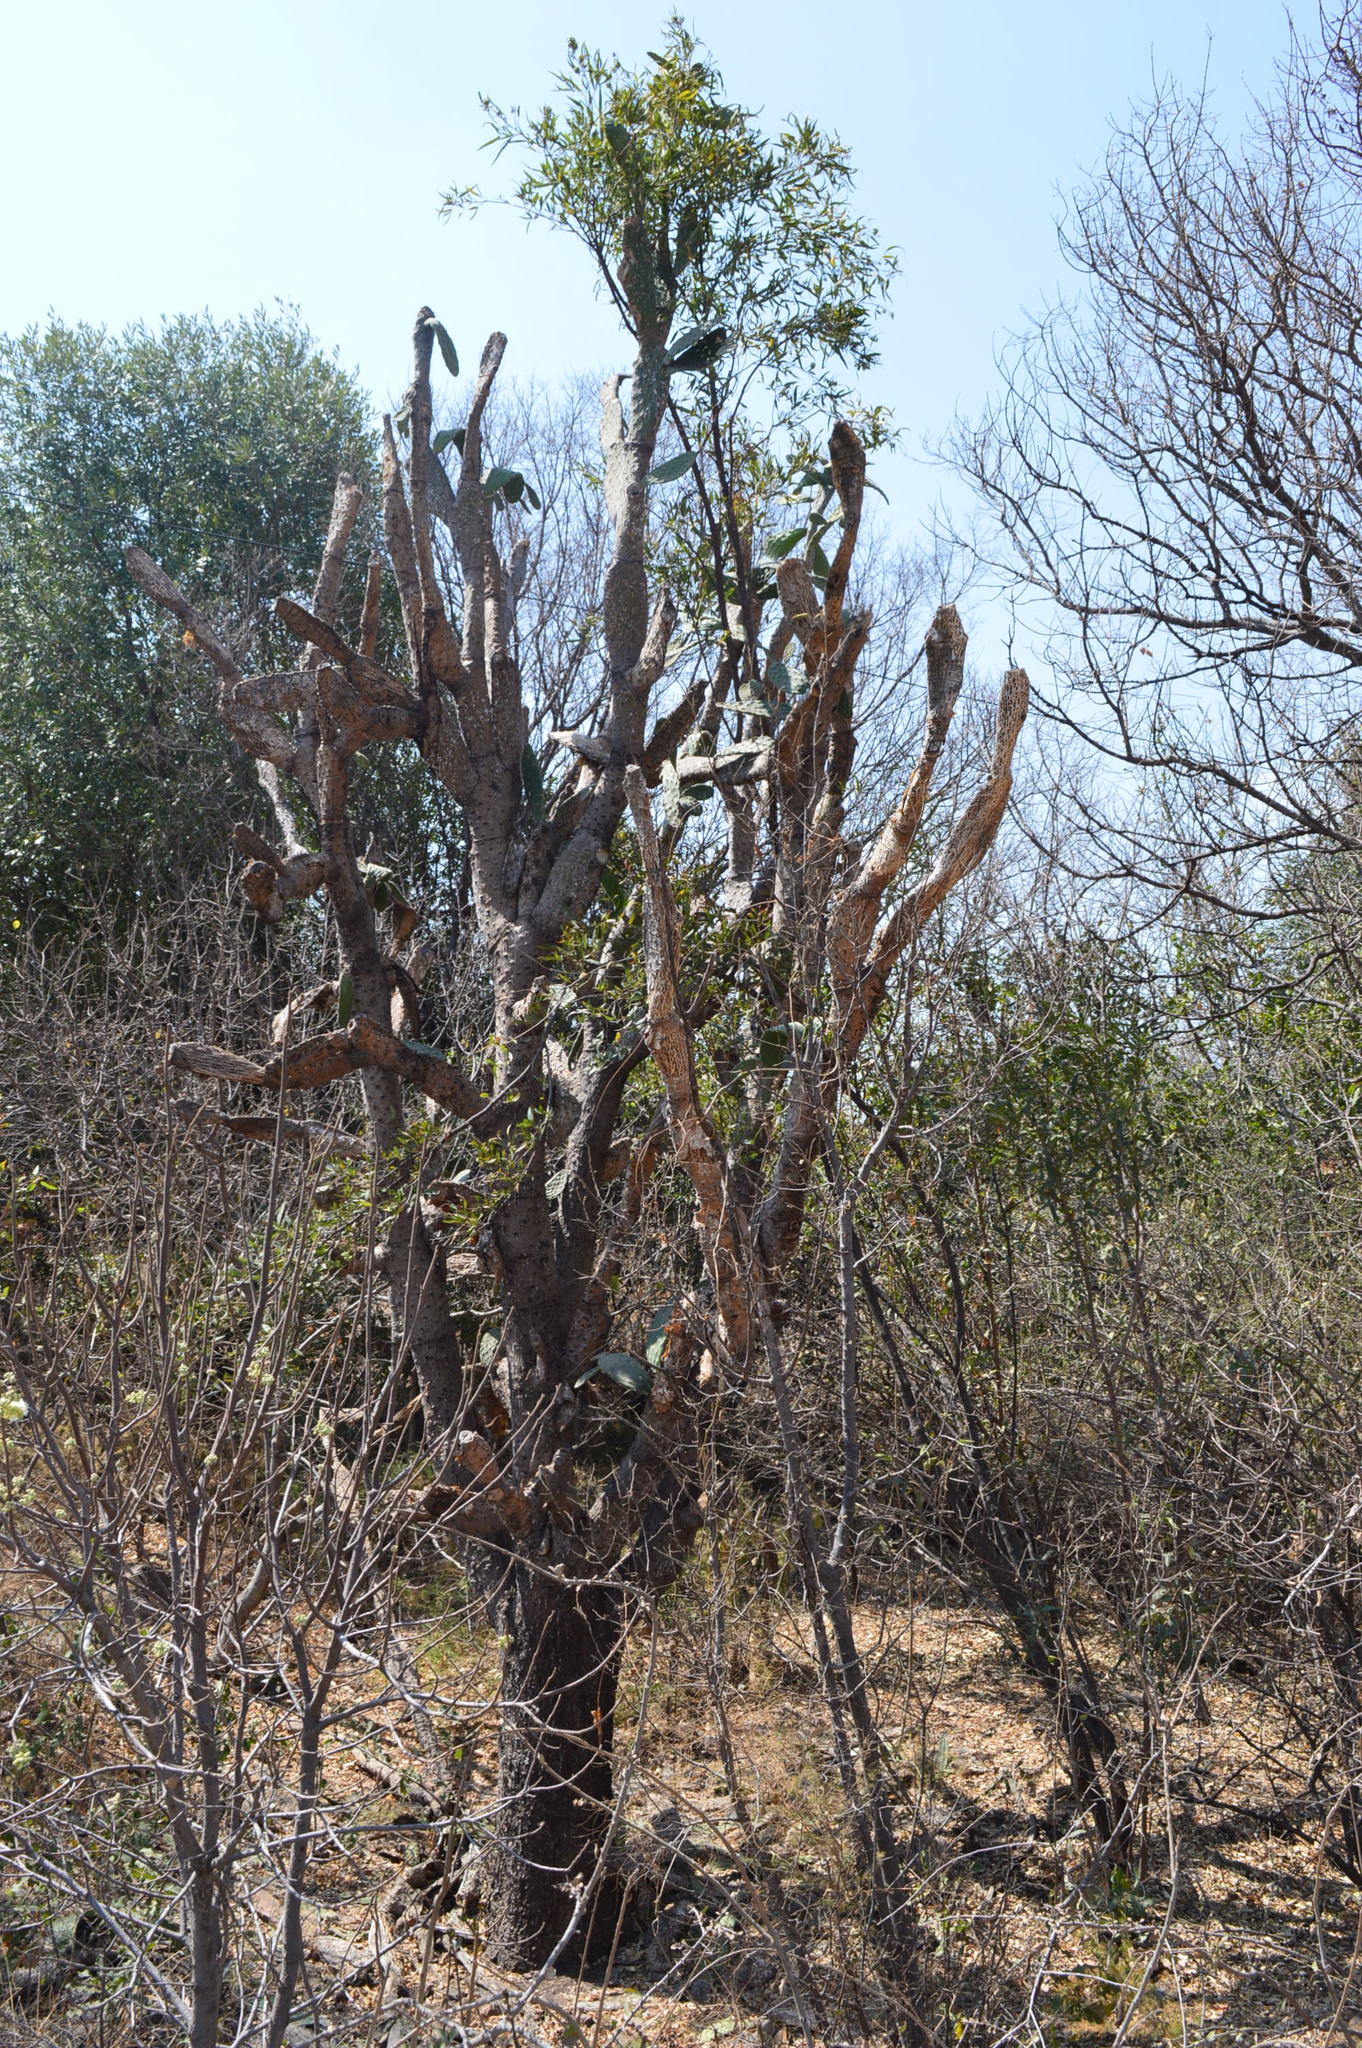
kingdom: Plantae
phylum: Tracheophyta
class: Magnoliopsida
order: Caryophyllales
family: Cactaceae
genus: Opuntia
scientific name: Opuntia tomentosa
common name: Woollyjoint pricklypear
